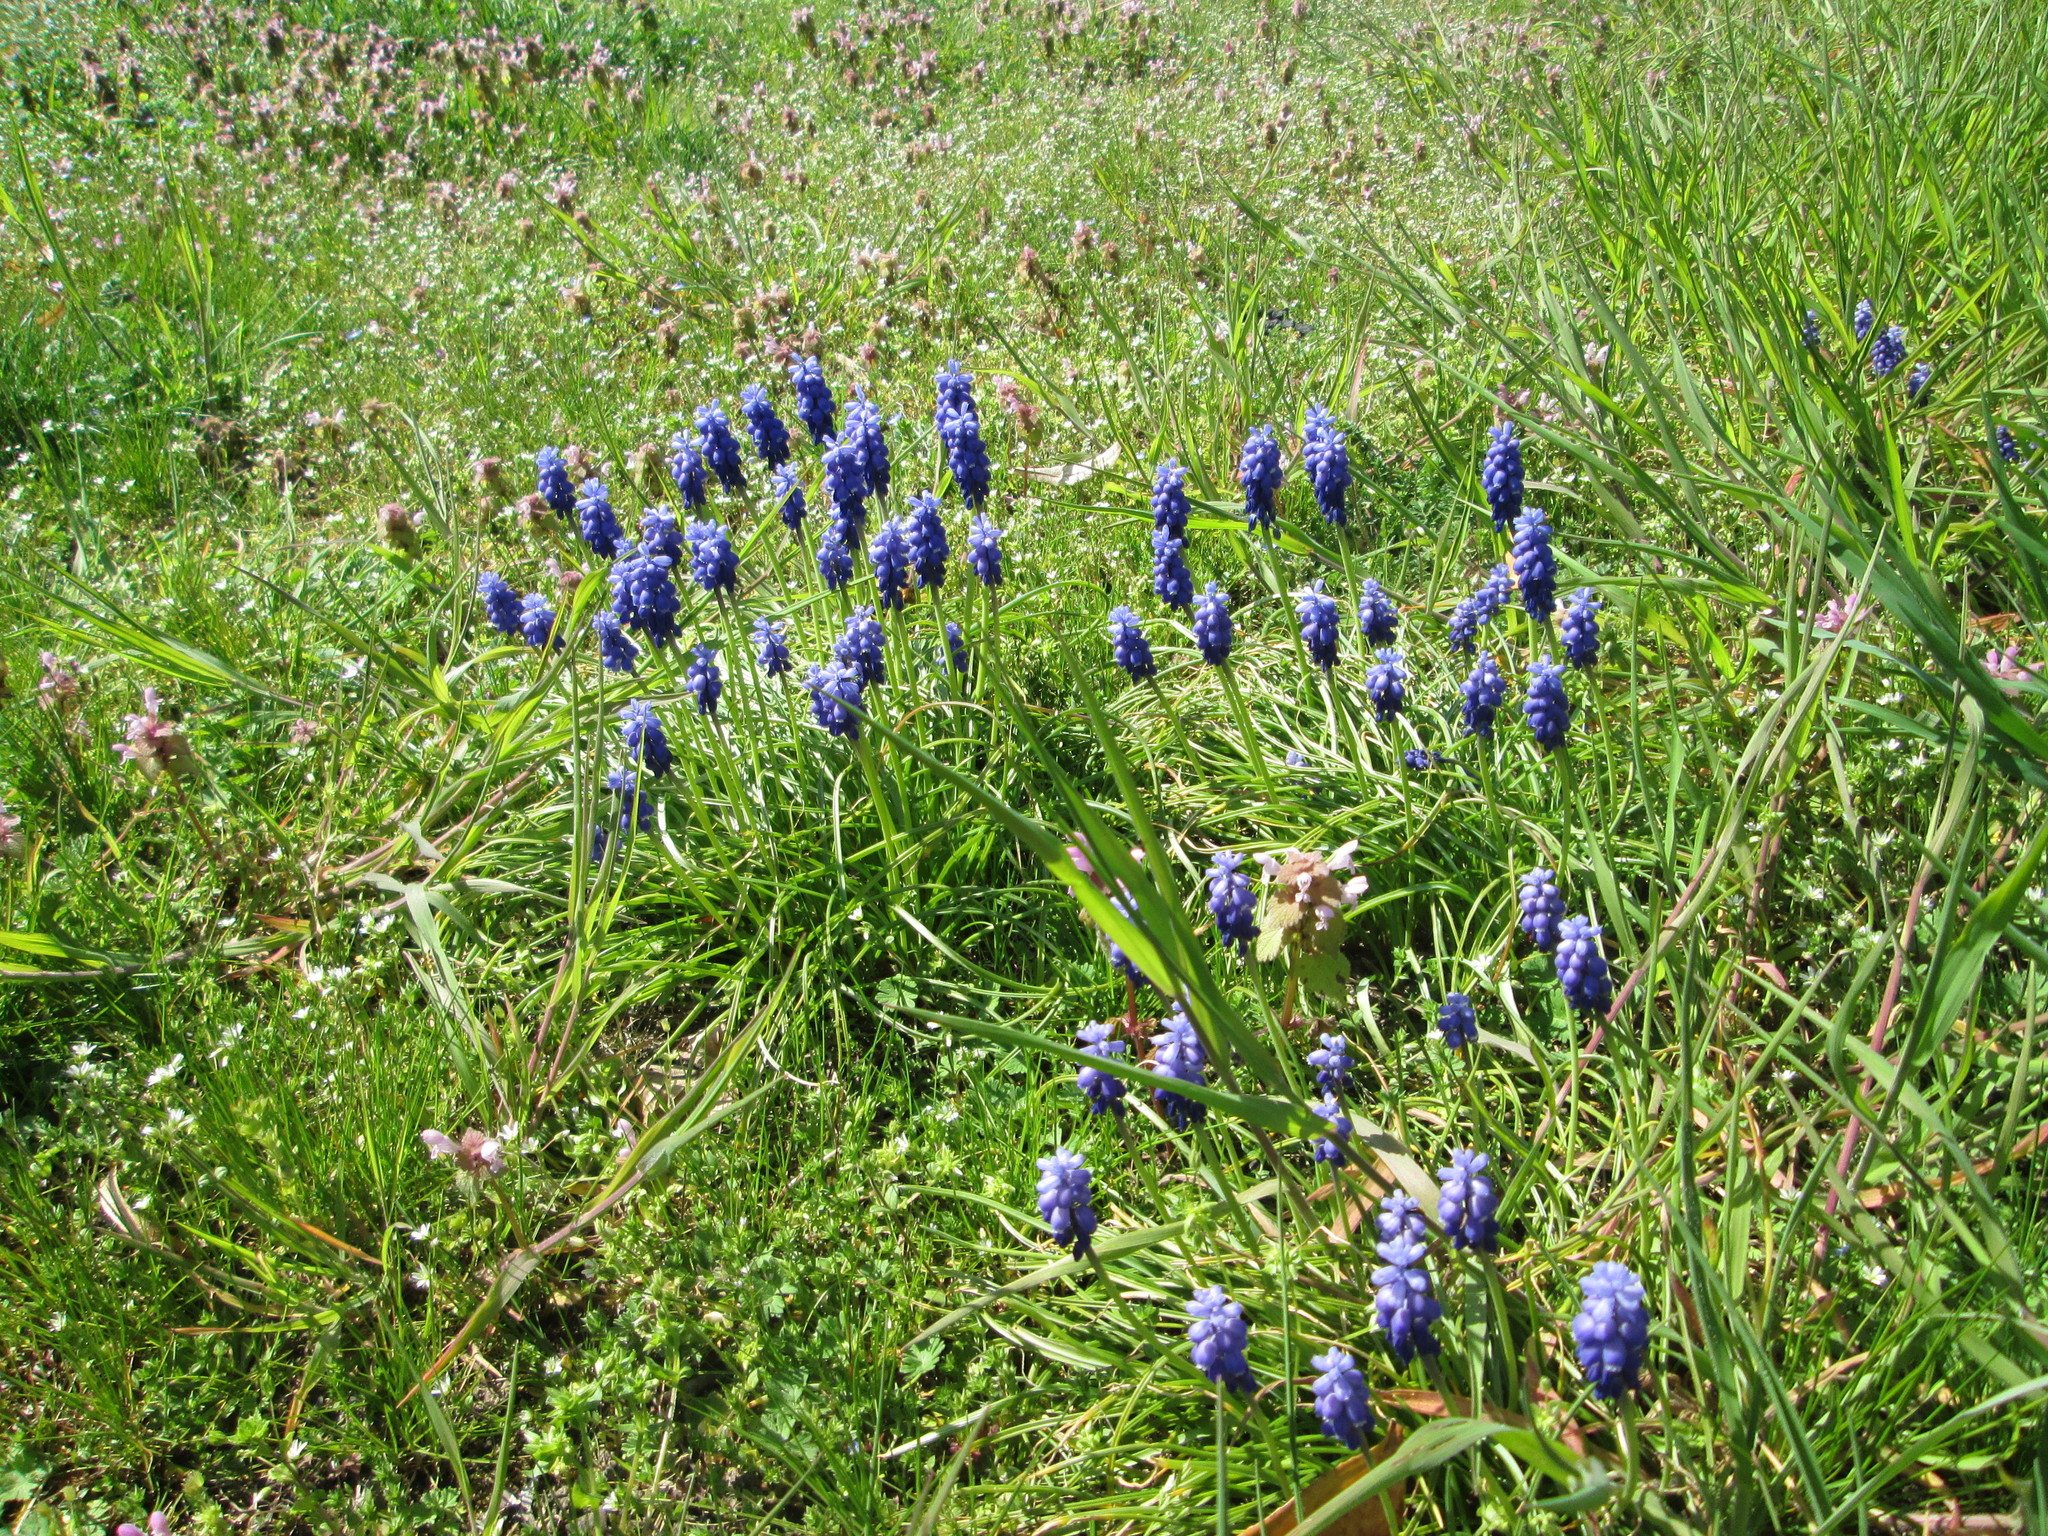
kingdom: Plantae
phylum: Tracheophyta
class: Liliopsida
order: Asparagales
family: Asparagaceae
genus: Muscari
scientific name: Muscari armeniacum
